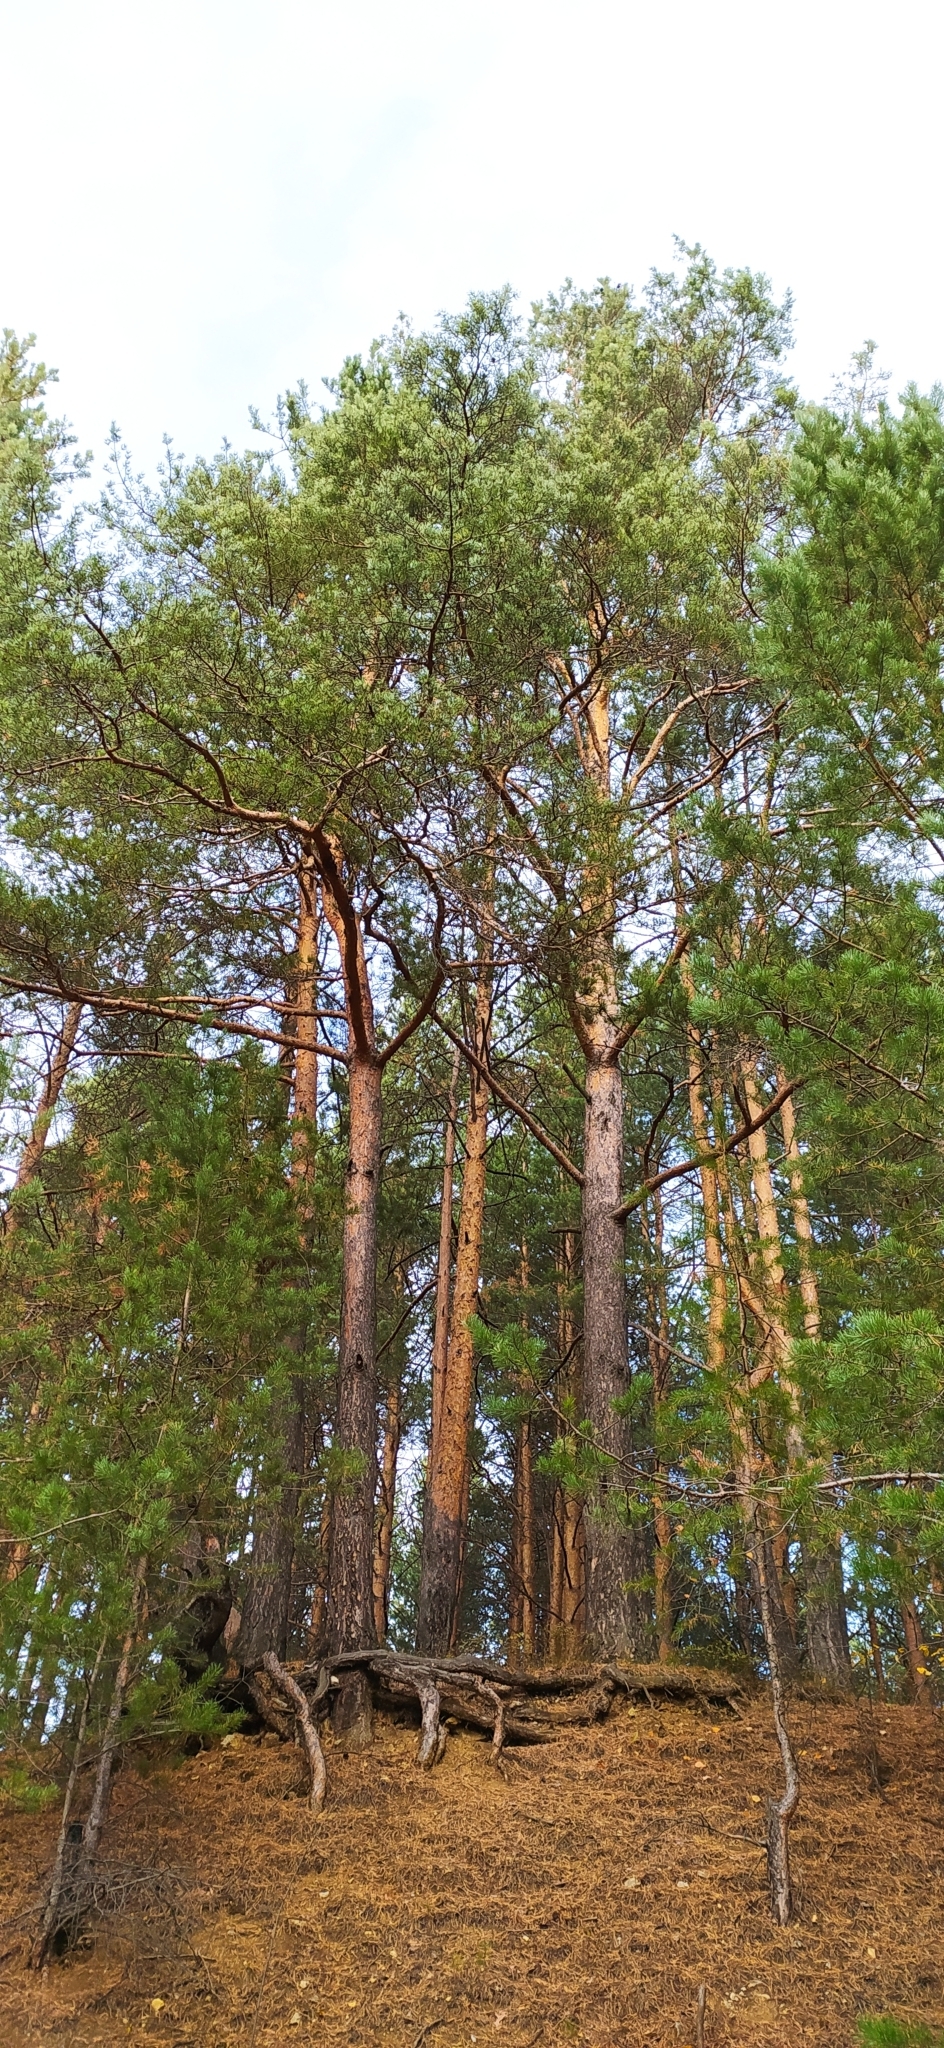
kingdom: Plantae
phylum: Tracheophyta
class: Pinopsida
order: Pinales
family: Pinaceae
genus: Pinus
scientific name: Pinus sylvestris
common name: Scots pine
